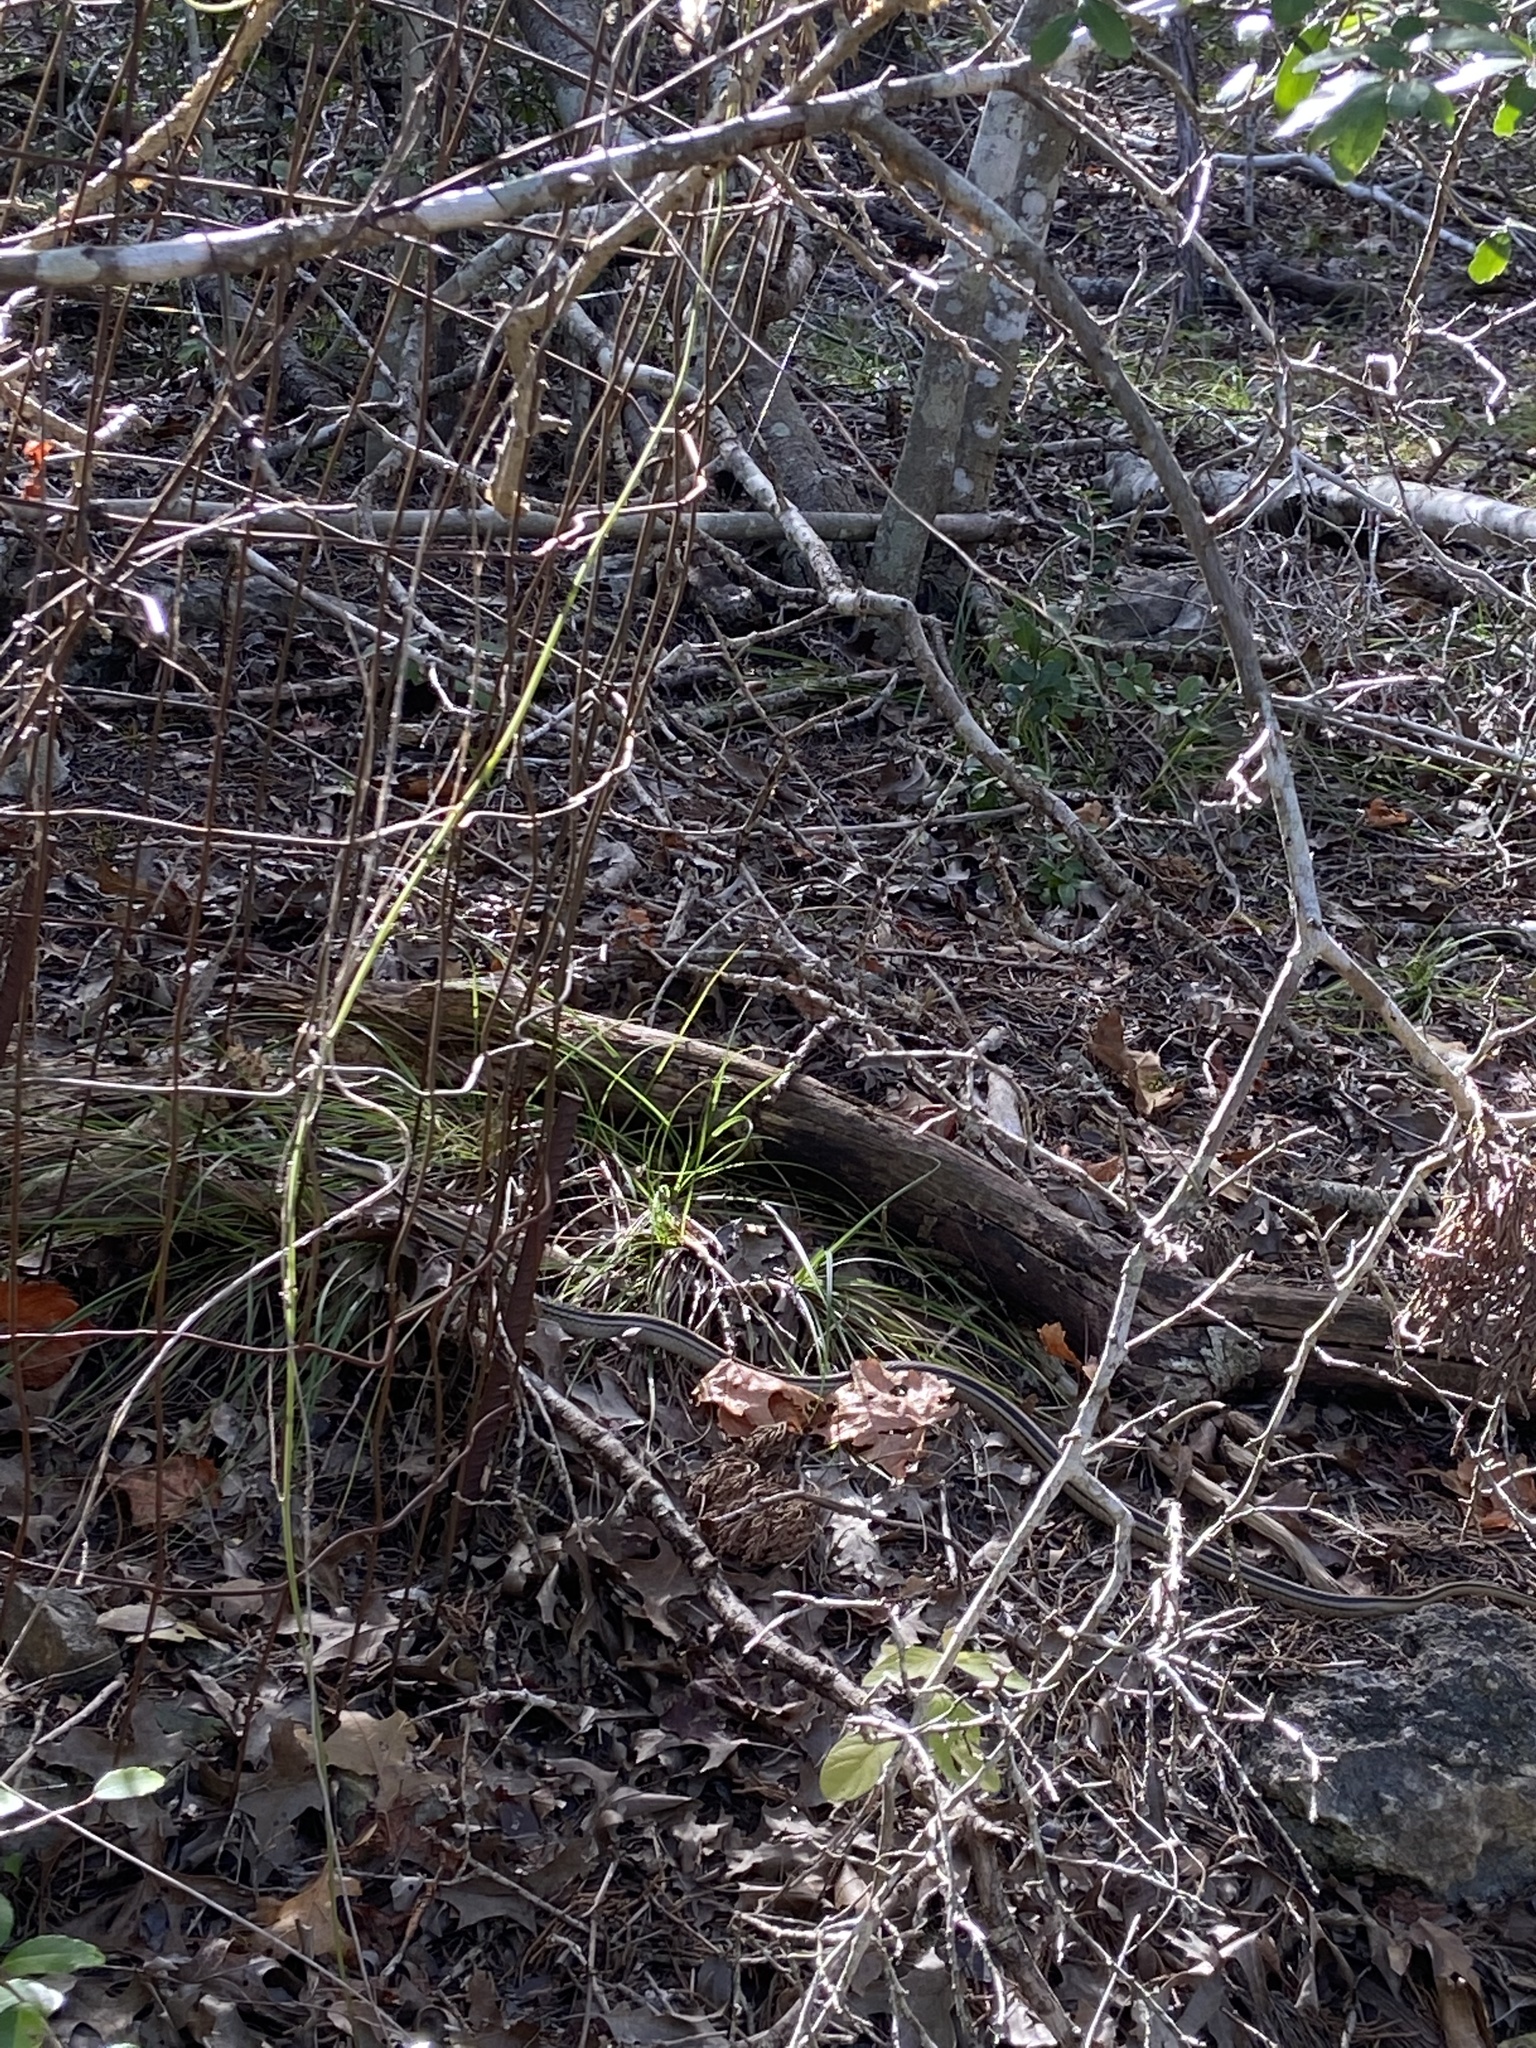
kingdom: Animalia
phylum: Chordata
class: Squamata
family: Colubridae
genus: Salvadora
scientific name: Salvadora lineata
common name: Texas patchnose snake
